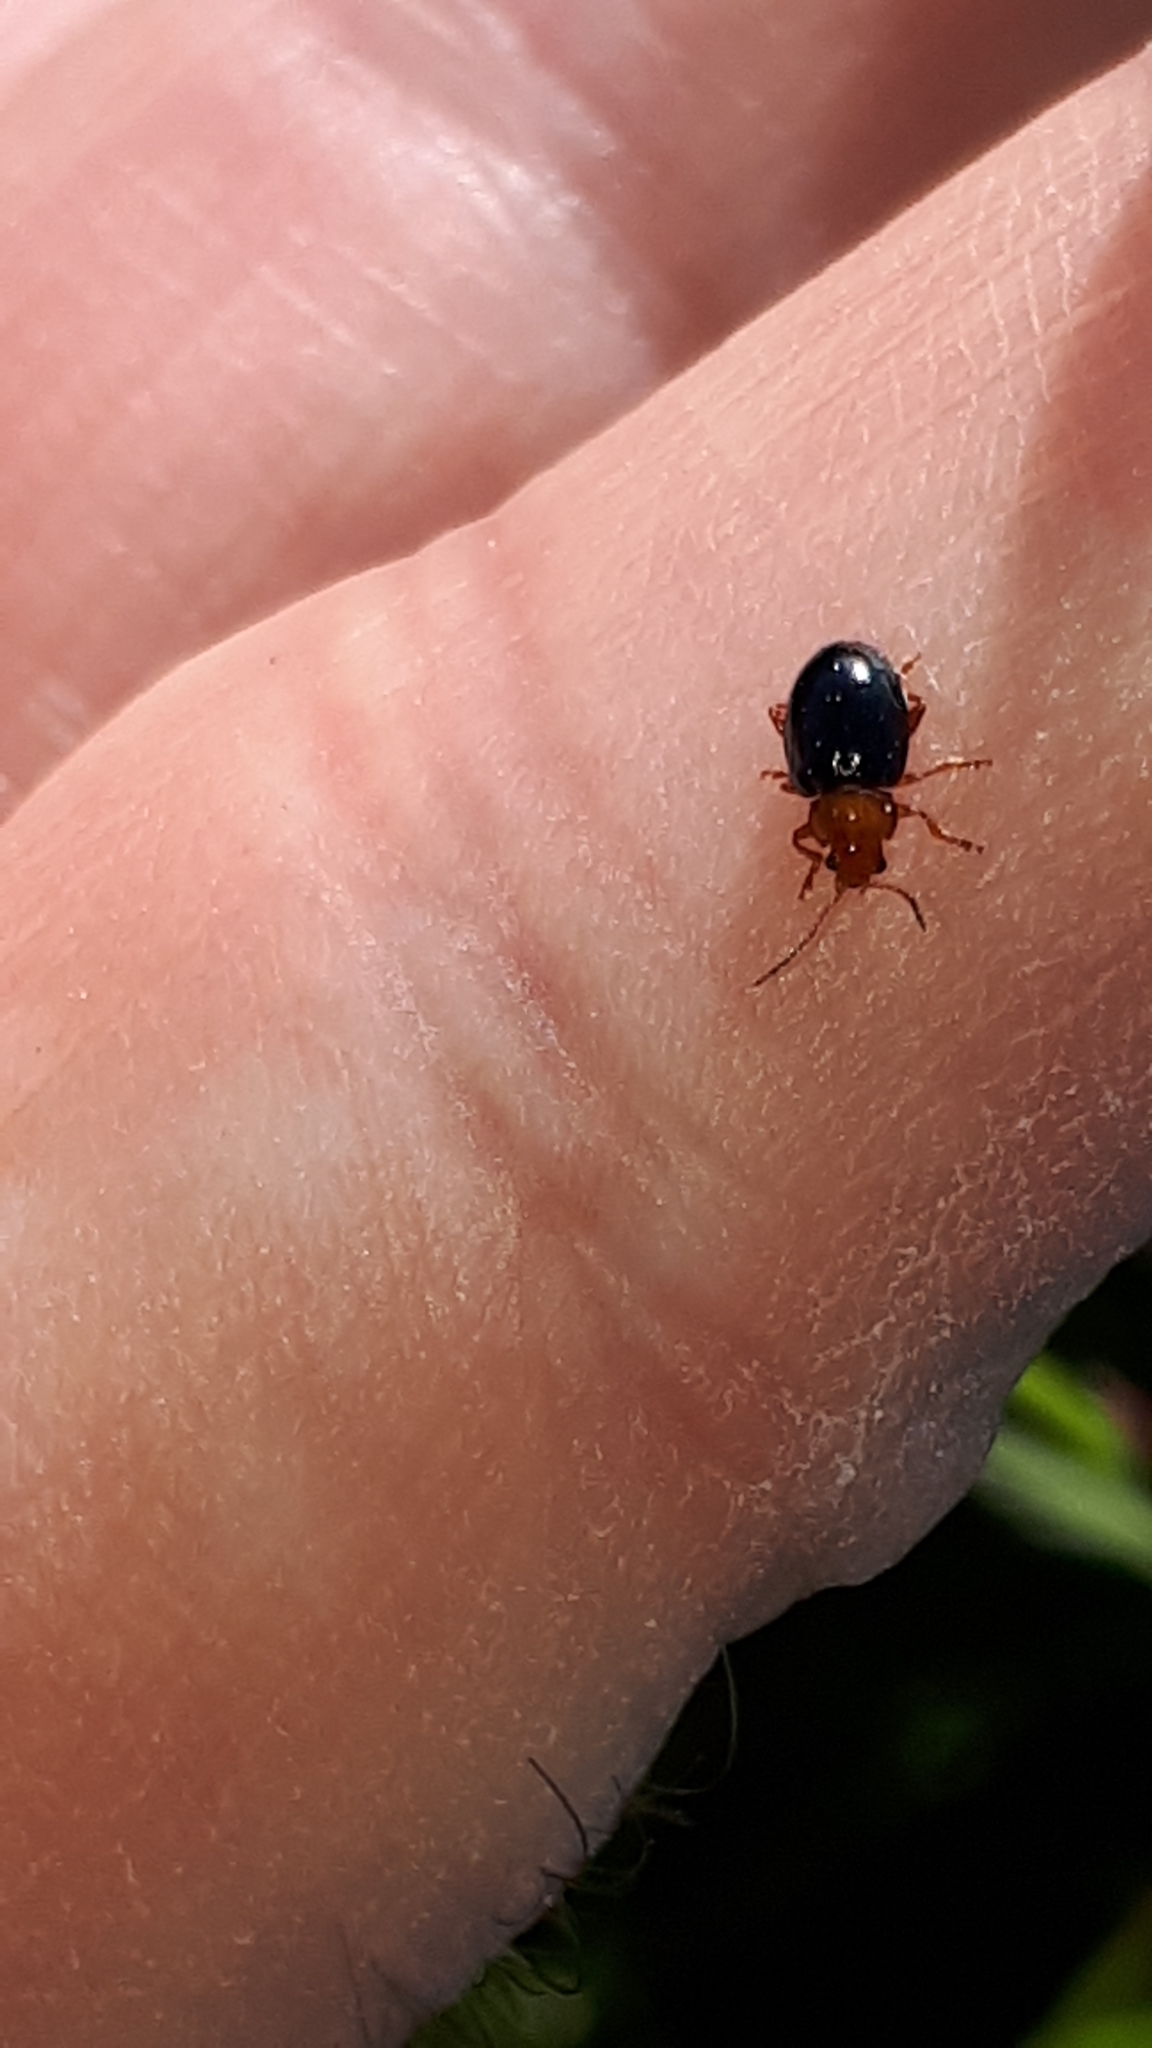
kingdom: Animalia
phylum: Arthropoda
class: Insecta
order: Coleoptera
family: Chrysomelidae
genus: Podagrica
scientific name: Podagrica fuscicornis
